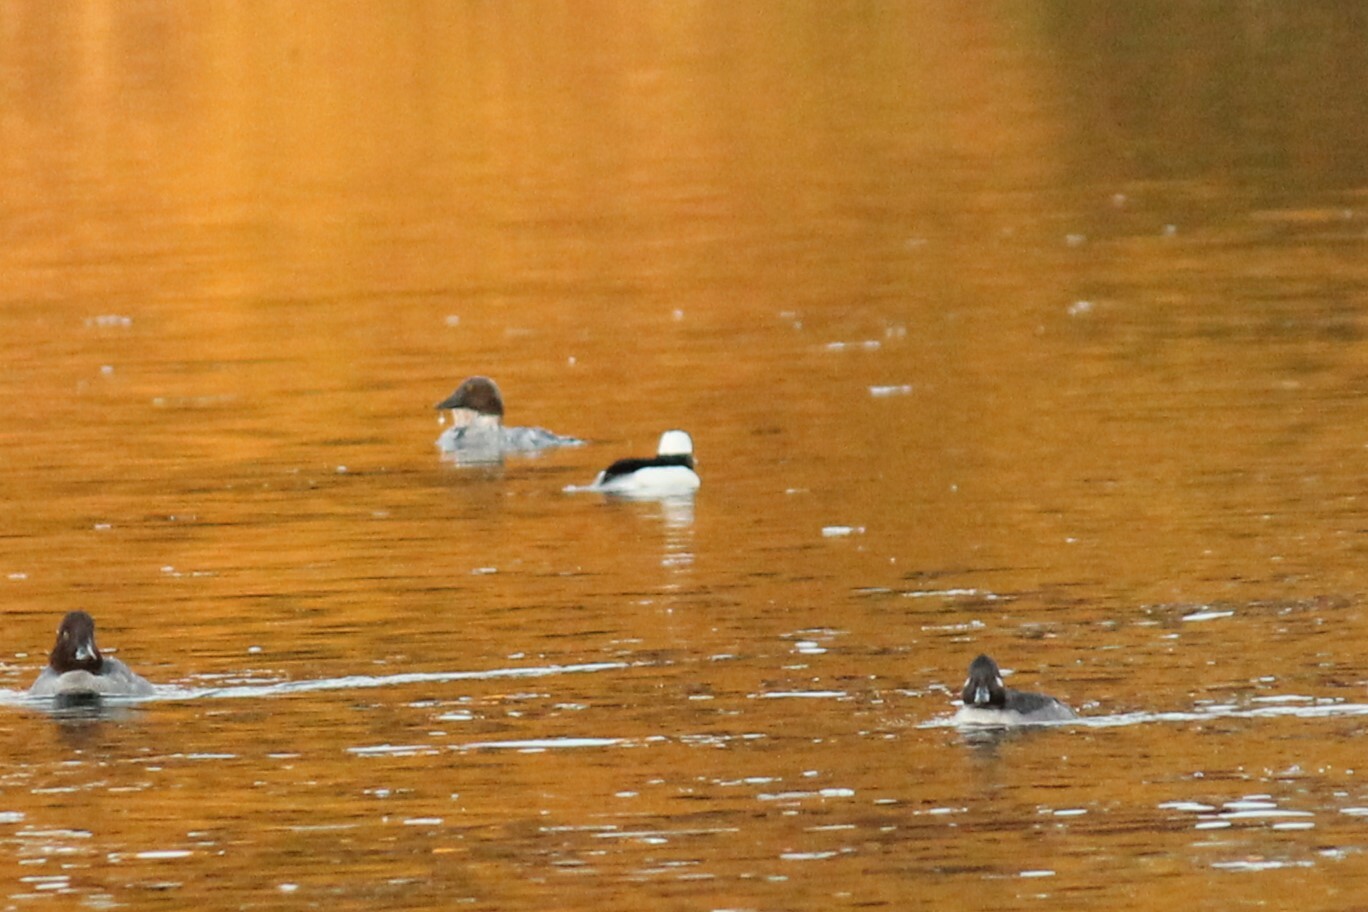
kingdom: Animalia
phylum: Chordata
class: Aves
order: Anseriformes
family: Anatidae
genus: Bucephala
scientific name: Bucephala albeola
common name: Bufflehead
